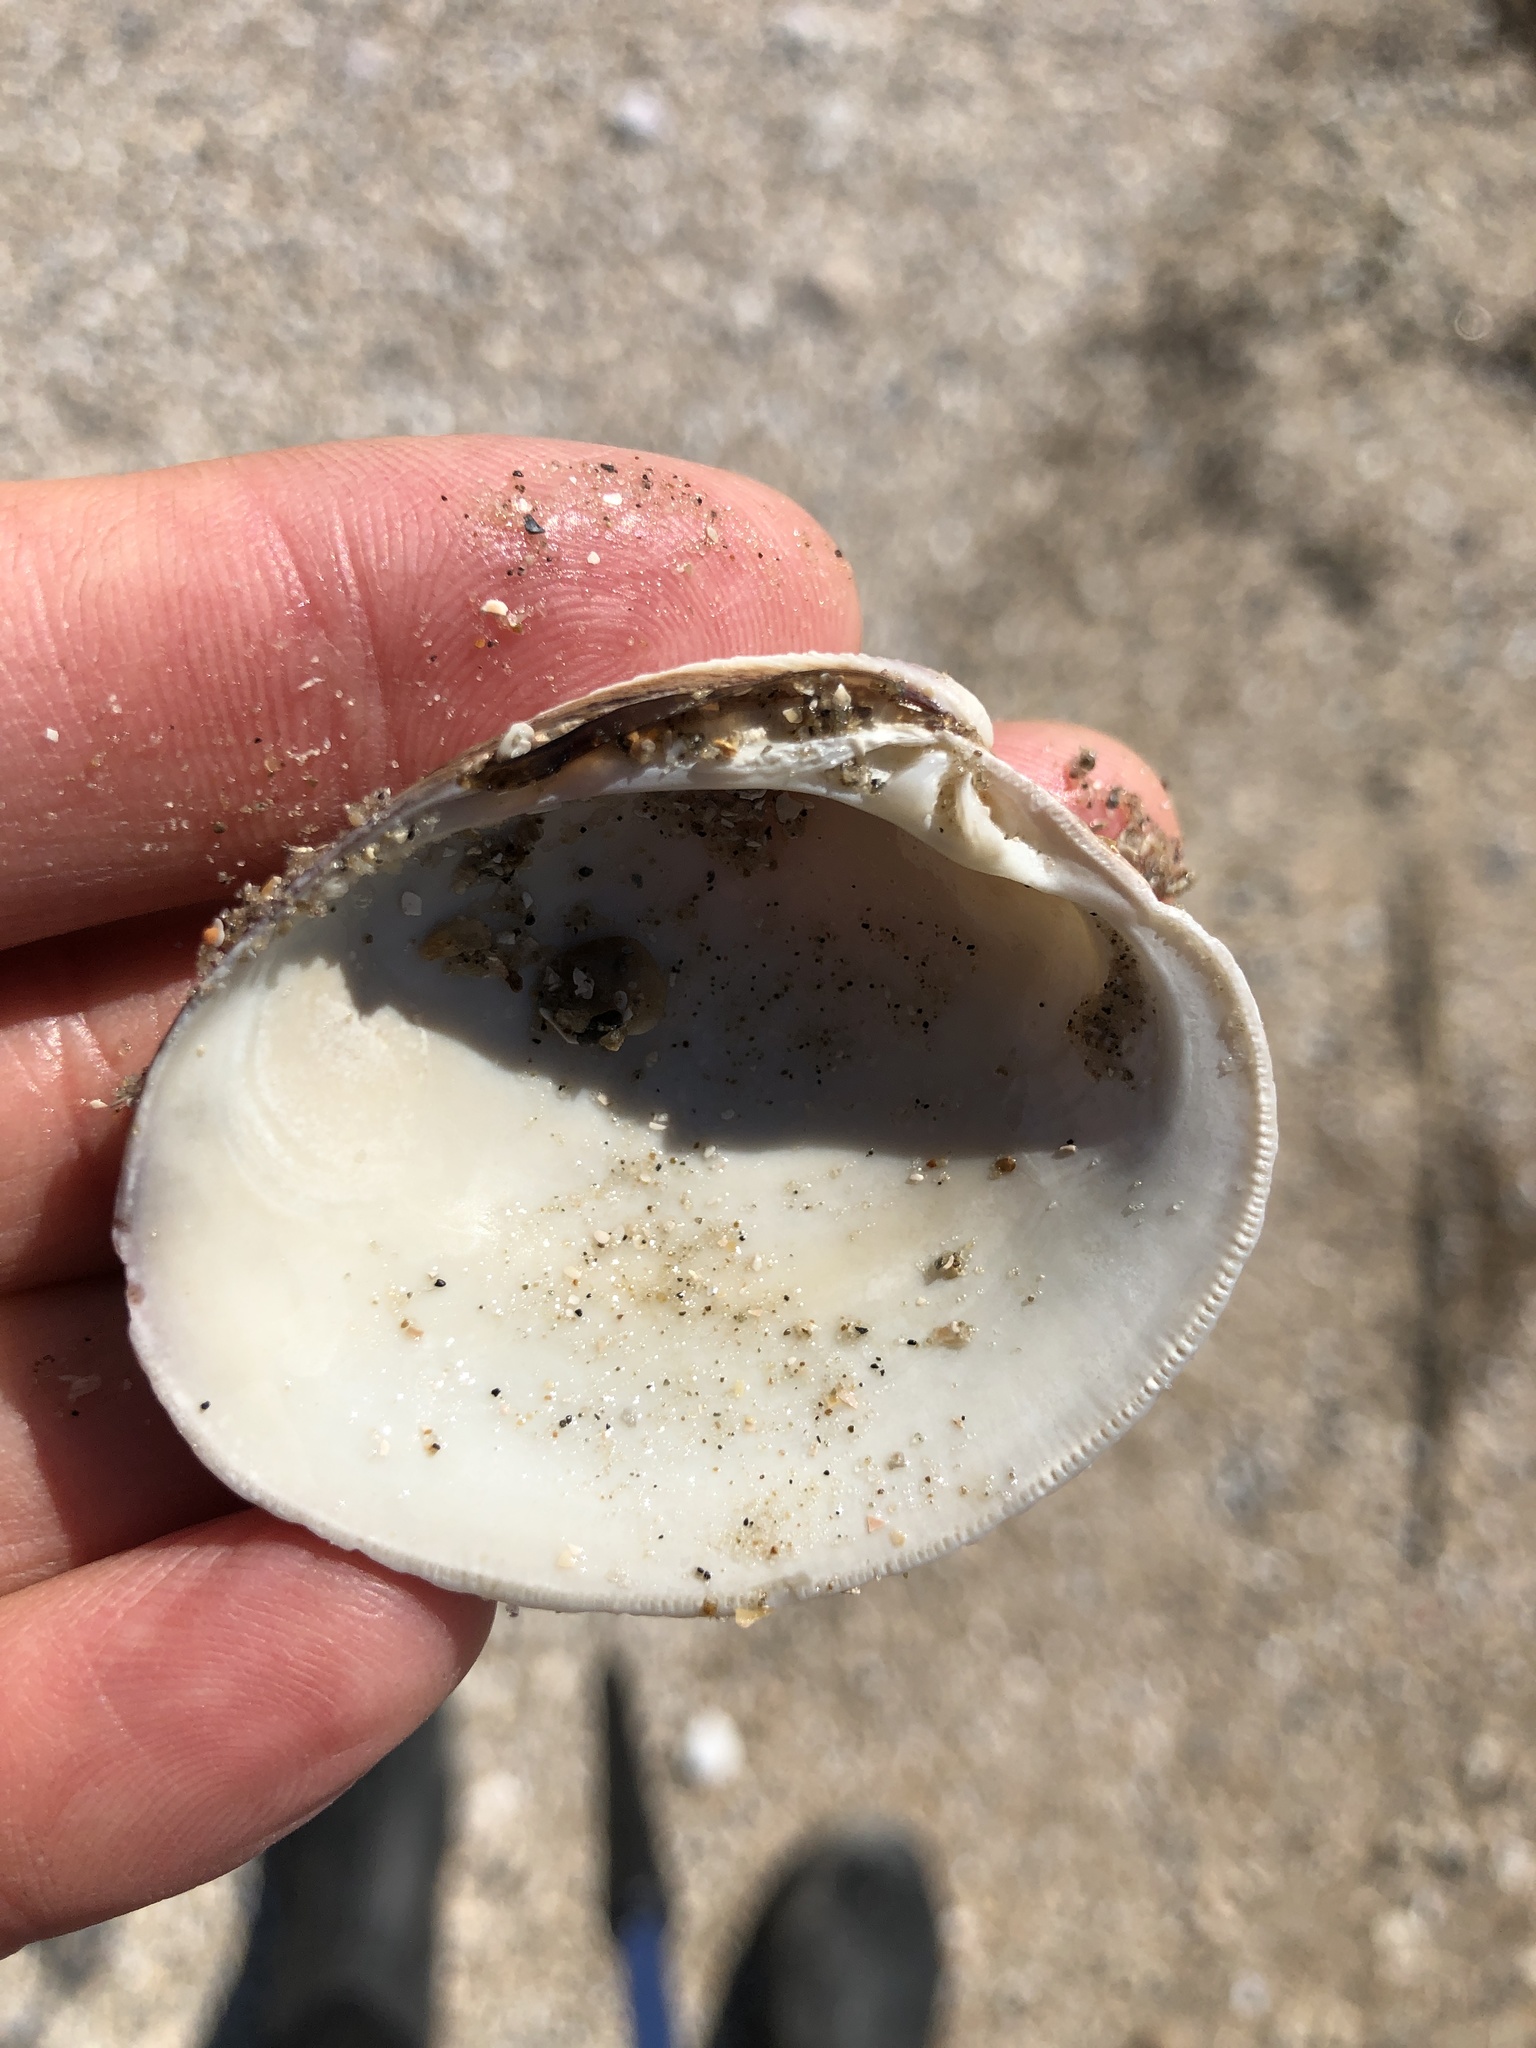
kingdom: Animalia
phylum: Mollusca
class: Bivalvia
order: Venerida
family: Veneridae
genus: Mercenaria
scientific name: Mercenaria campechiensis
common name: Südliche quahog-muschel
